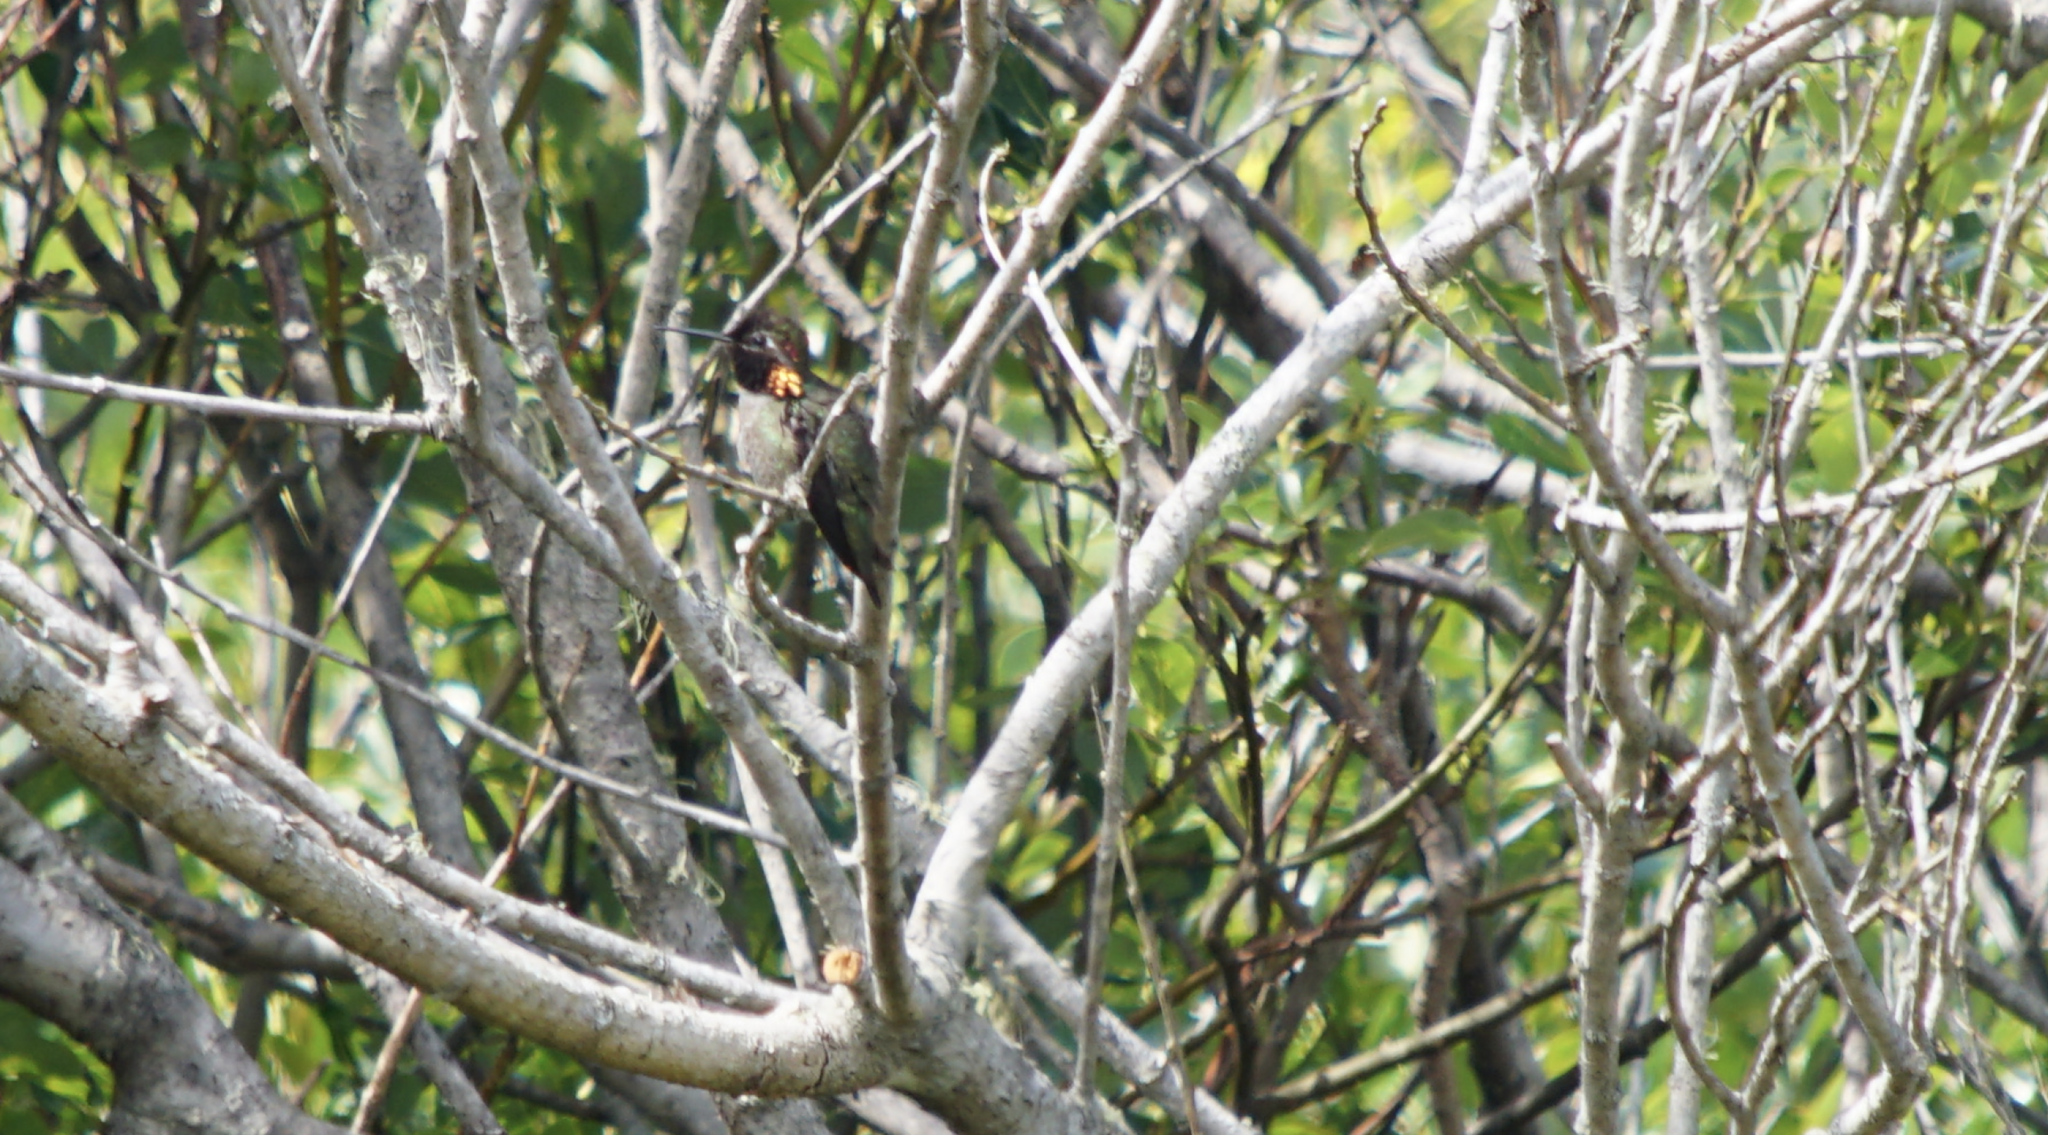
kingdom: Animalia
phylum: Chordata
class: Aves
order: Apodiformes
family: Trochilidae
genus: Calypte
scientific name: Calypte anna
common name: Anna's hummingbird
